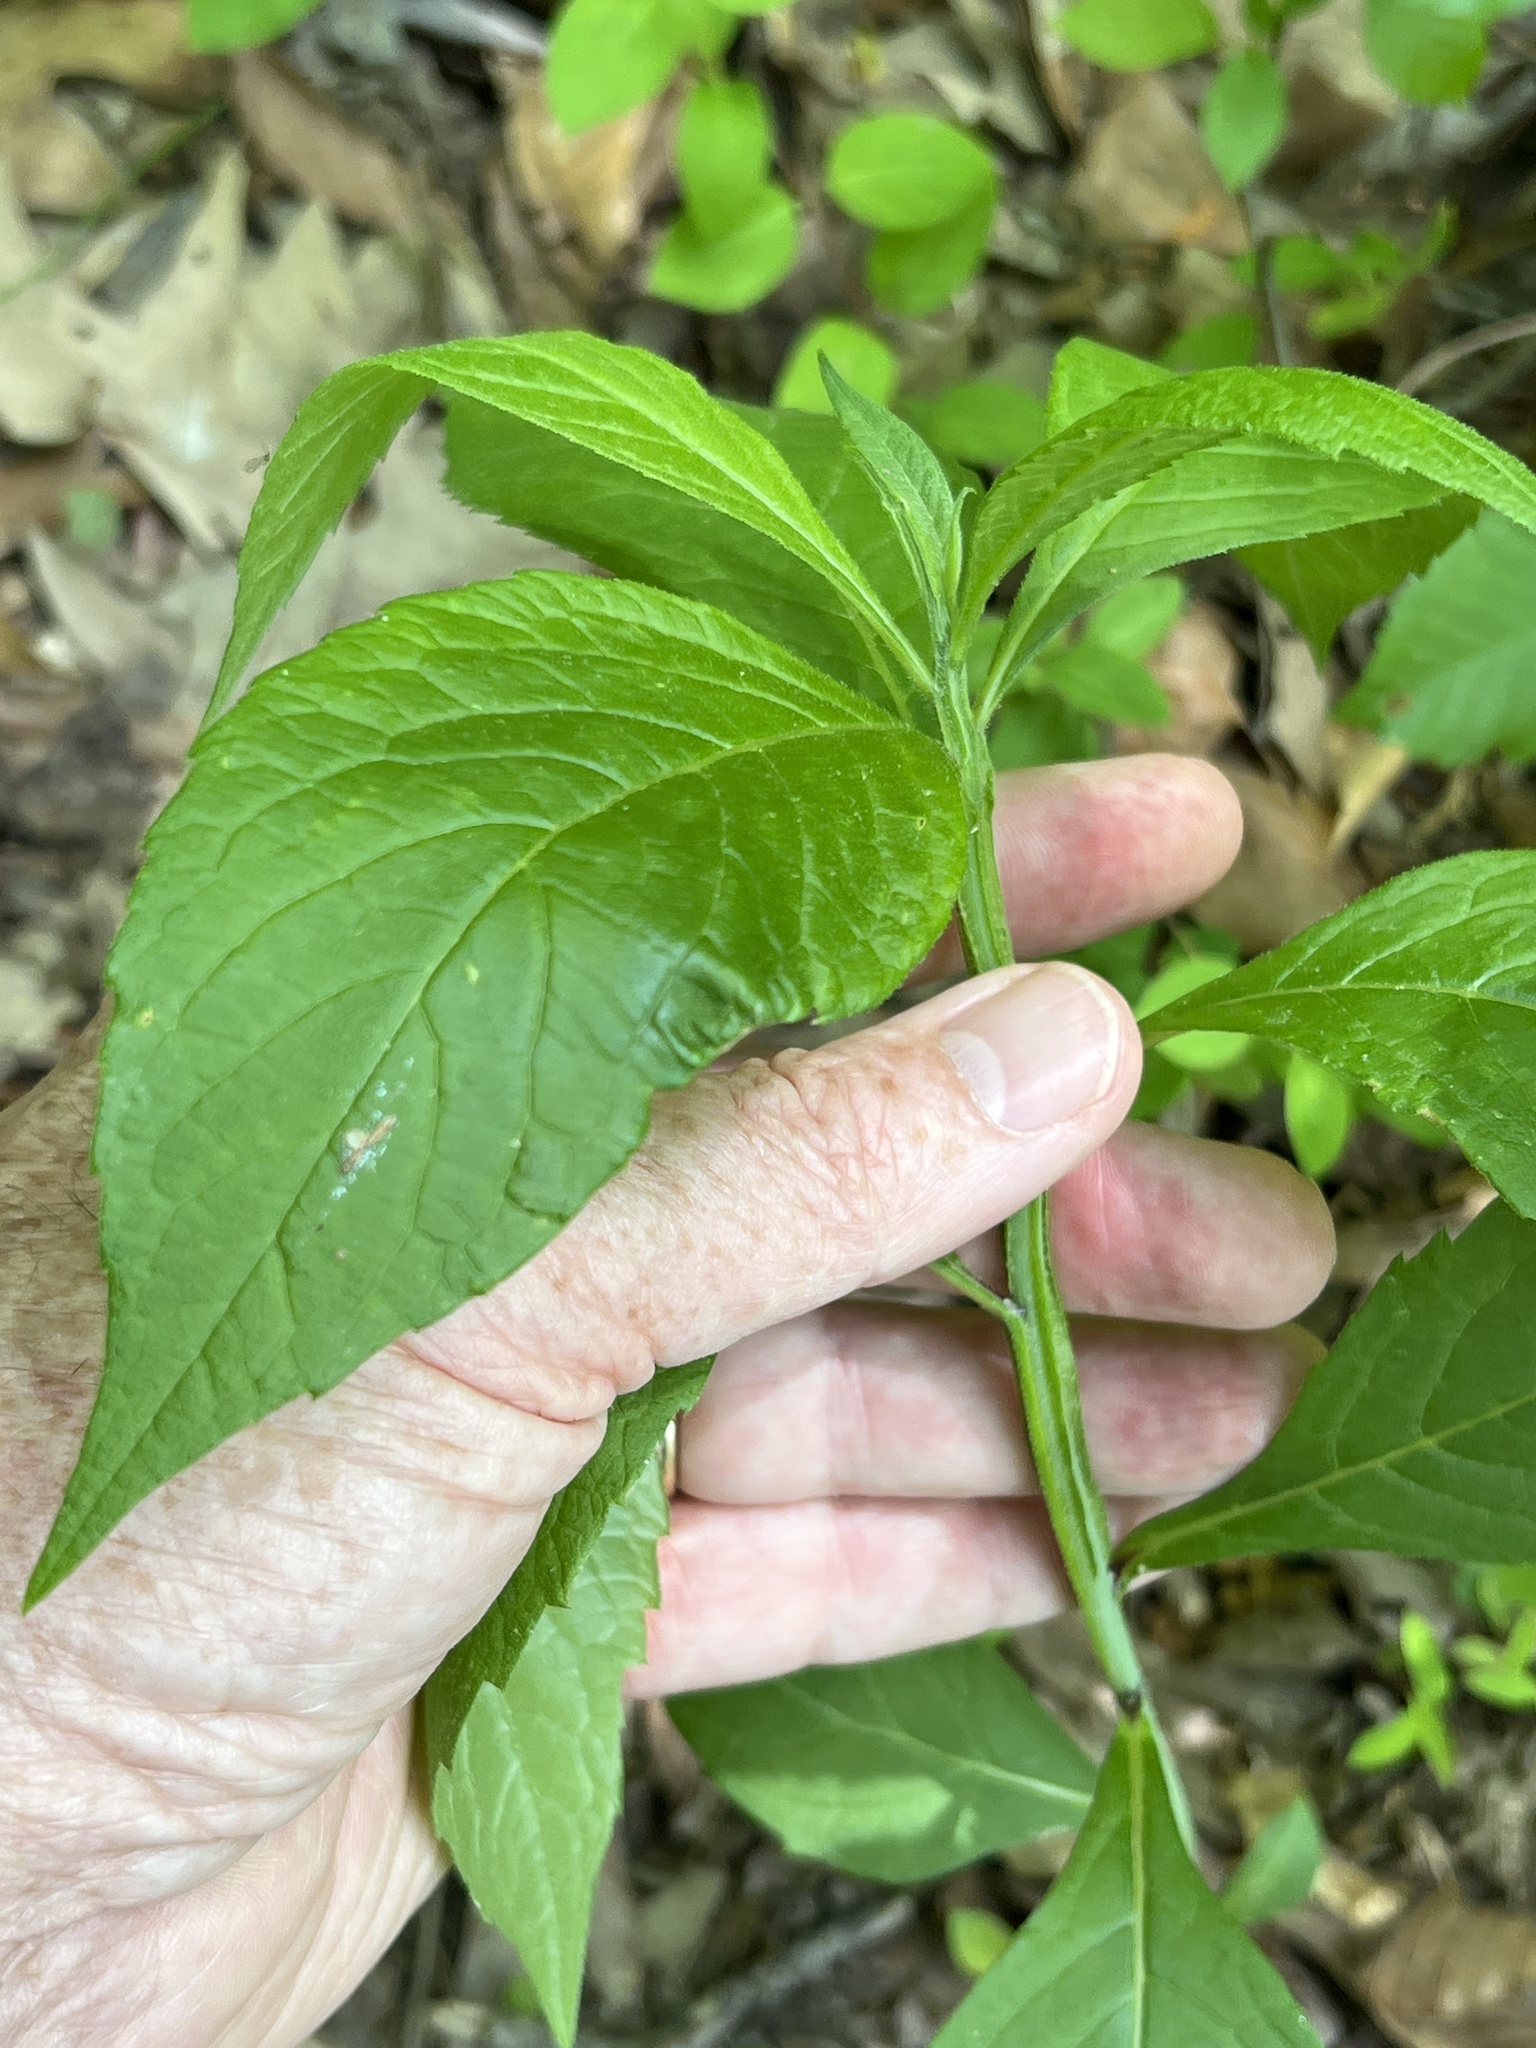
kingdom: Plantae
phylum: Tracheophyta
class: Magnoliopsida
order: Asterales
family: Asteraceae
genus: Verbesina
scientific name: Verbesina alternifolia
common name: Wingstem
